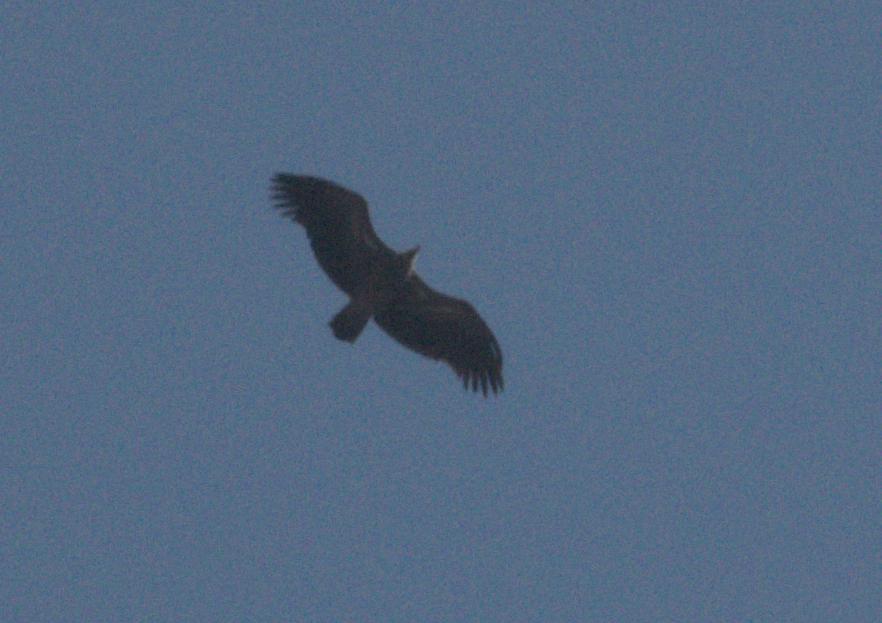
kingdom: Animalia
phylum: Chordata
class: Aves
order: Accipitriformes
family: Accipitridae
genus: Gyps
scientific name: Gyps himalayensis
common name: Himalayan griffon
